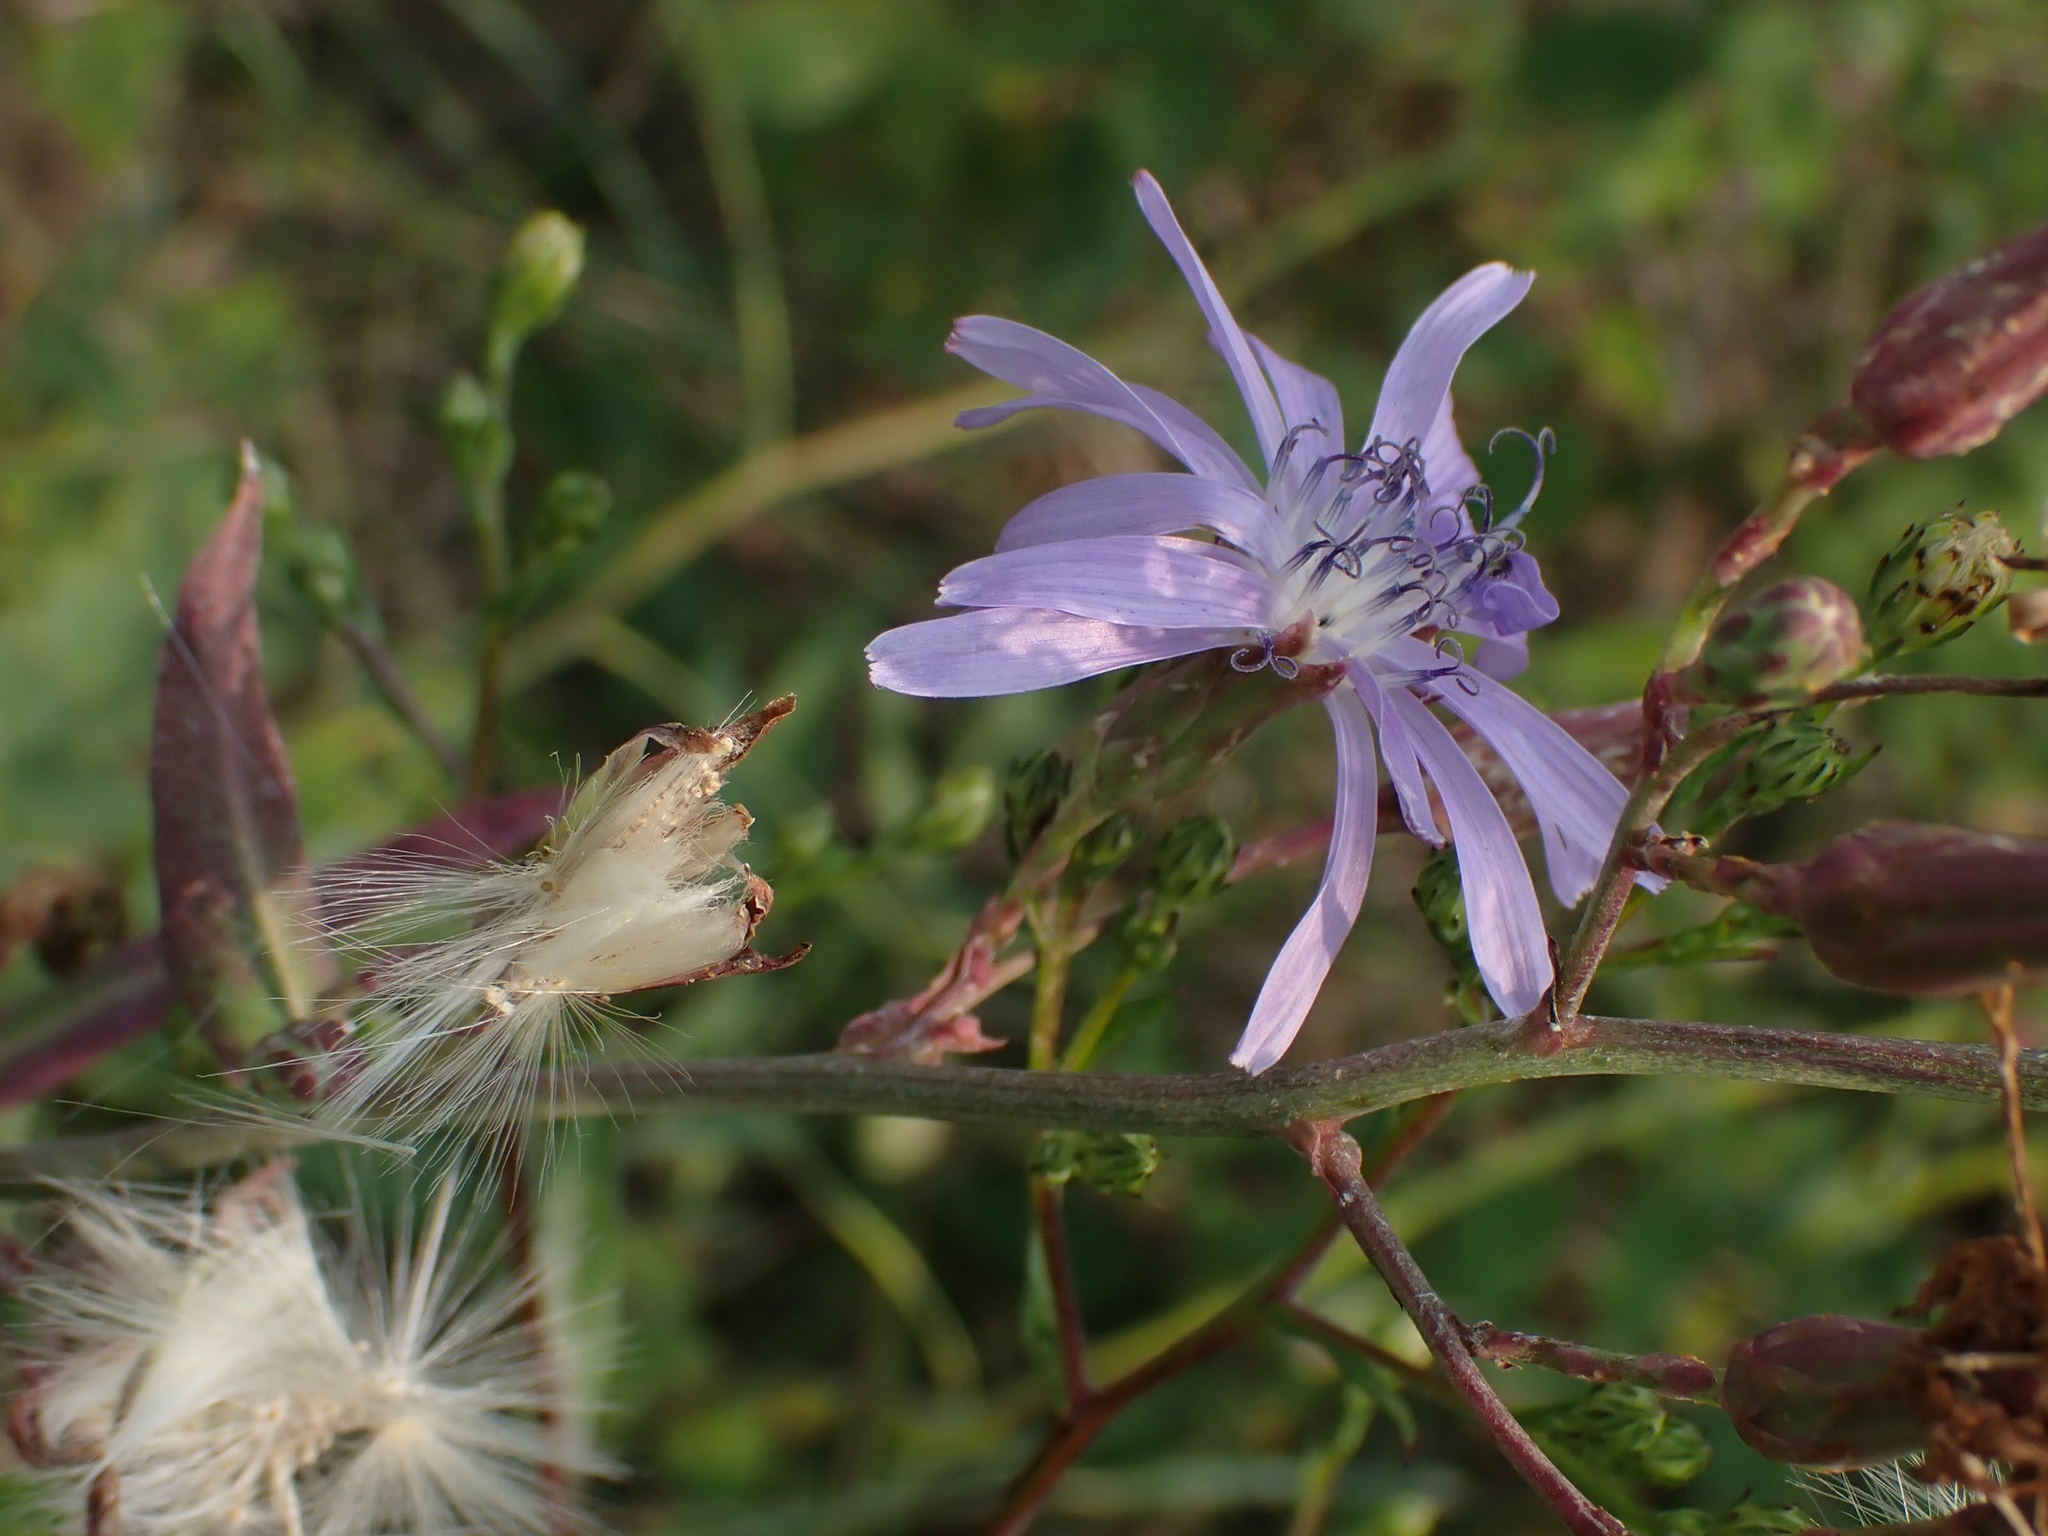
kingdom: Plantae
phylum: Tracheophyta
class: Magnoliopsida
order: Asterales
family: Asteraceae
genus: Lactuca
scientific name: Lactuca pulchella
